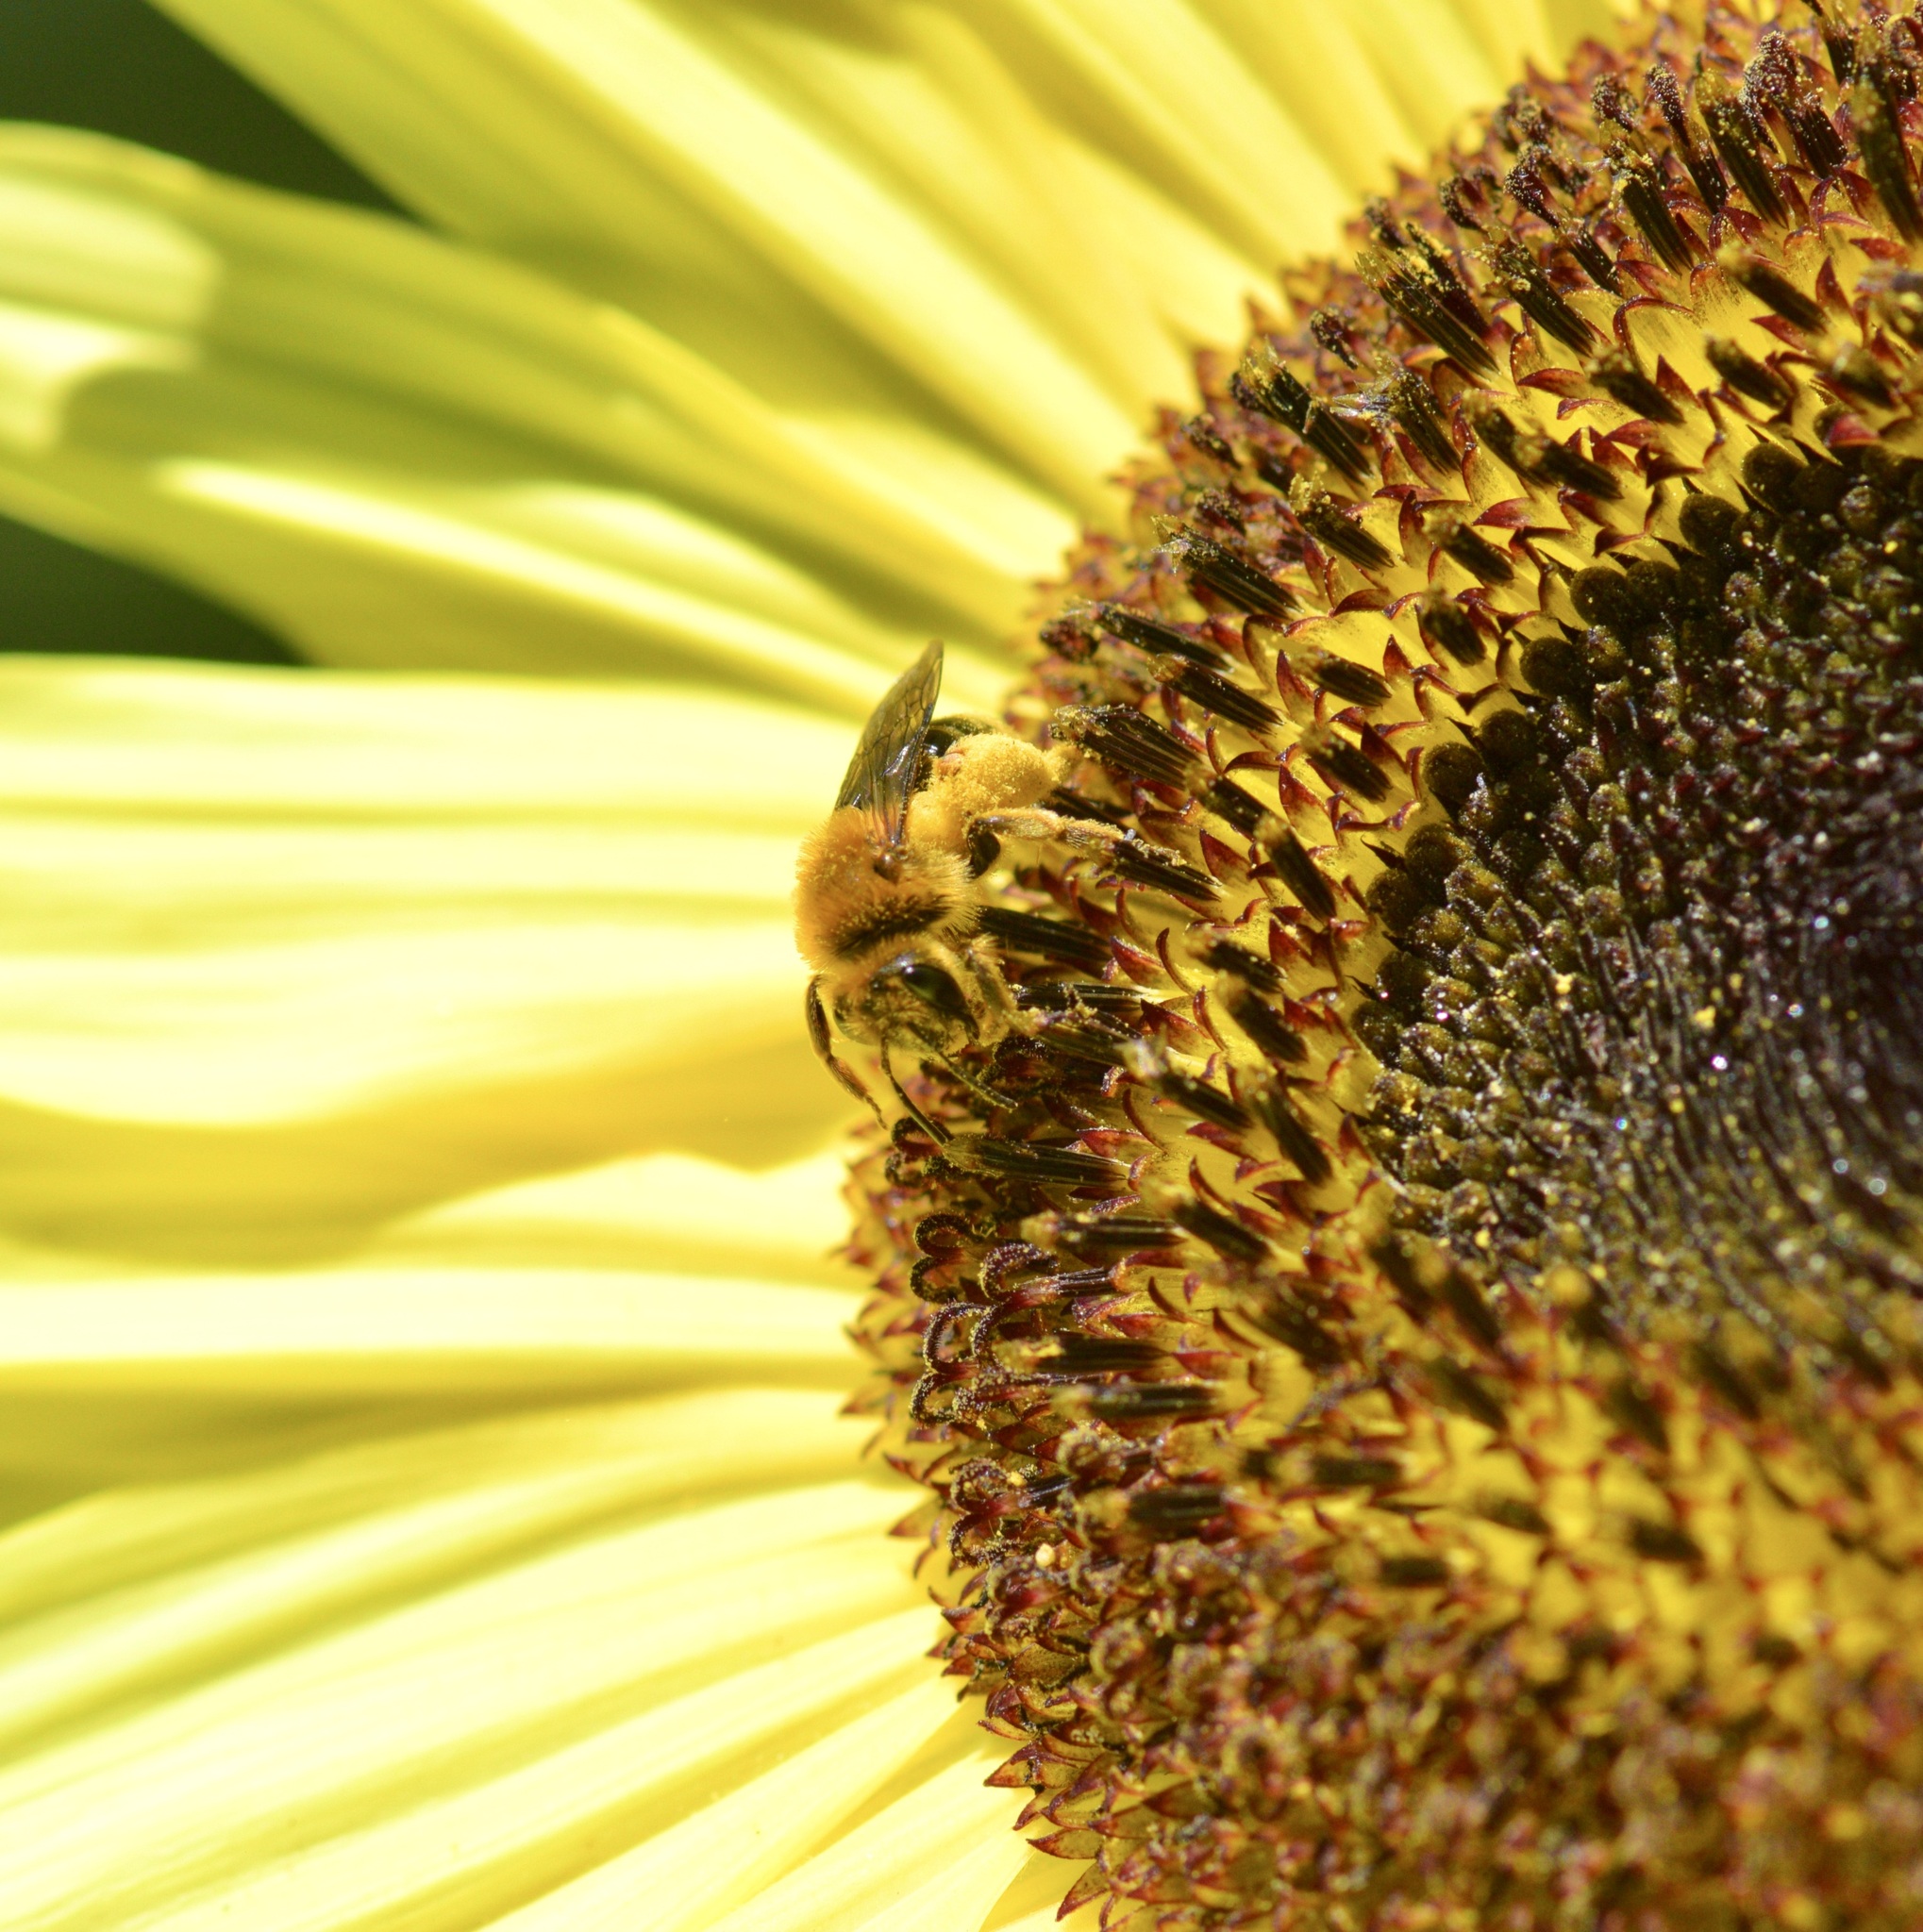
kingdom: Animalia
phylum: Arthropoda
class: Insecta
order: Hymenoptera
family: Andrenidae
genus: Andrena
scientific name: Andrena helianthi
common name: Sunflower mining bee
